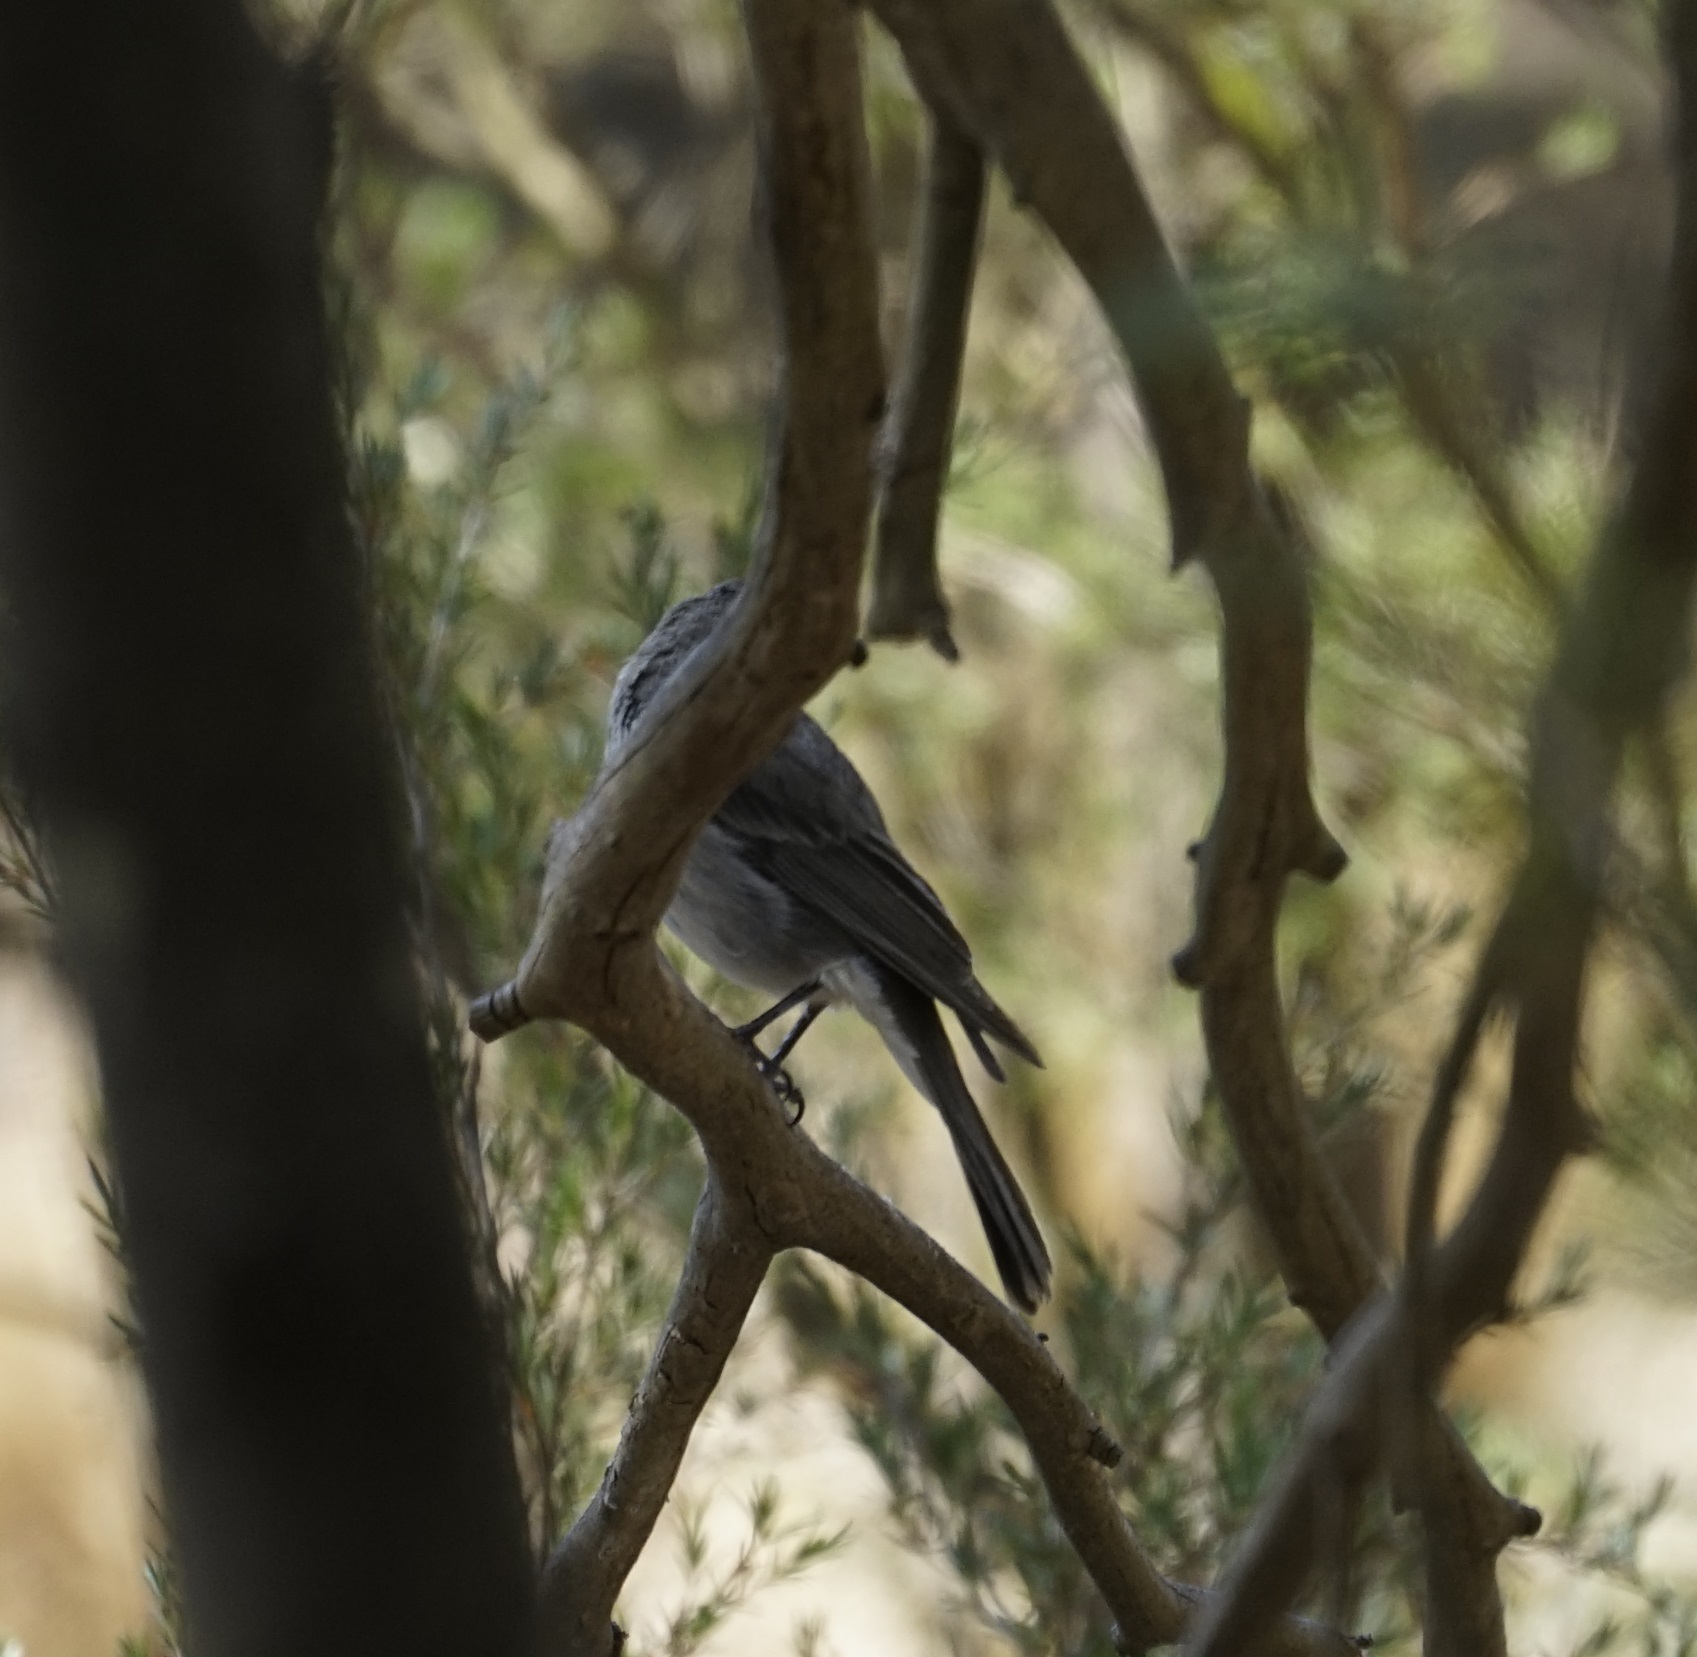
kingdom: Animalia
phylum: Chordata
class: Aves
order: Passeriformes
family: Pachycephalidae
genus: Colluricincla
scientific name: Colluricincla harmonica
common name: Grey shrikethrush
